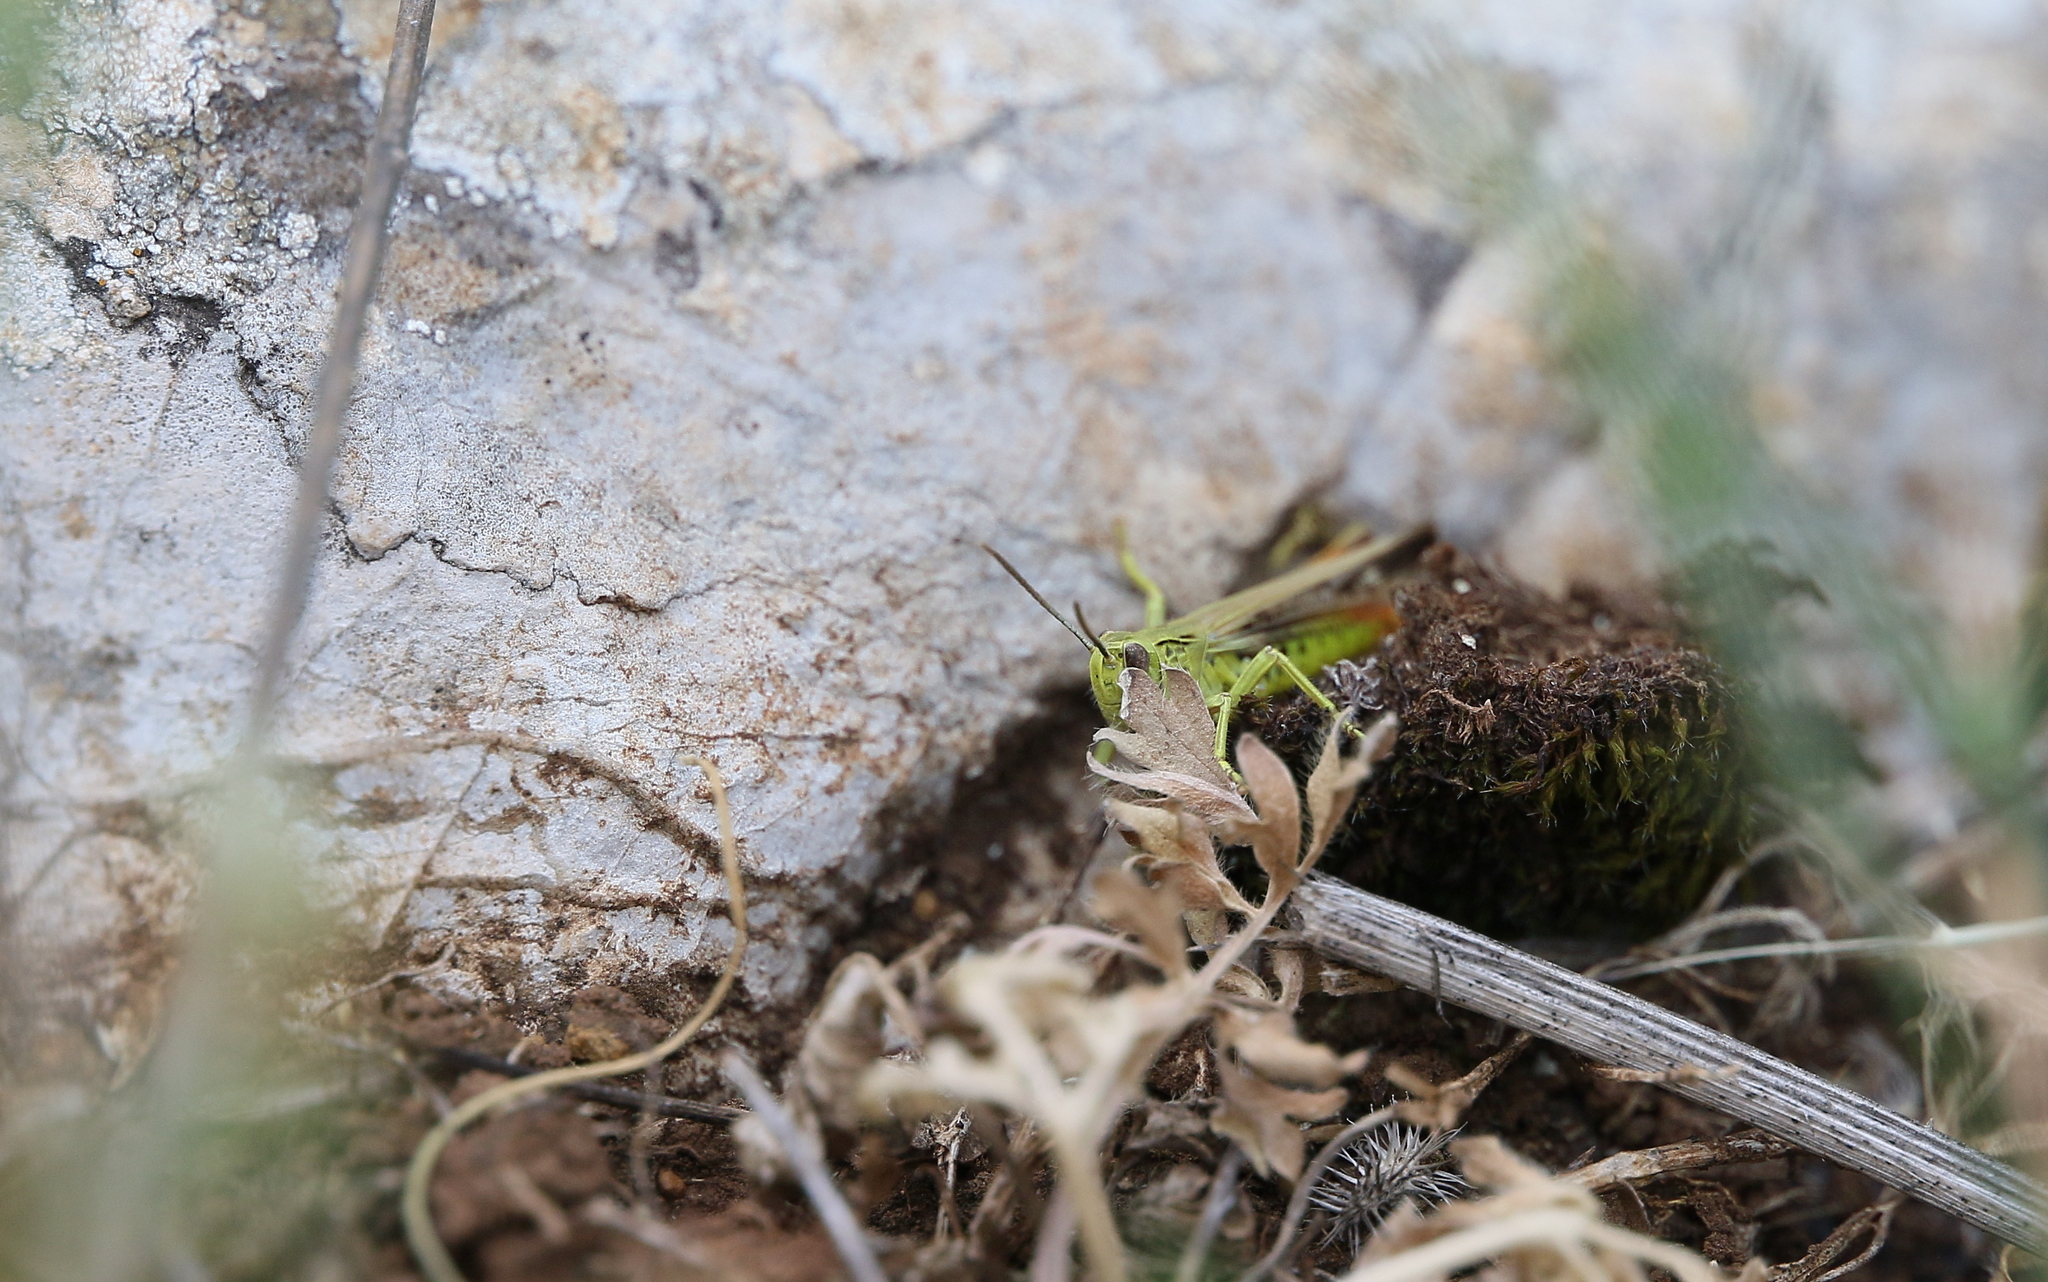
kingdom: Animalia
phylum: Arthropoda
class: Insecta
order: Orthoptera
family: Acrididae
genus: Chorthippus
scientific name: Chorthippus apicalis
